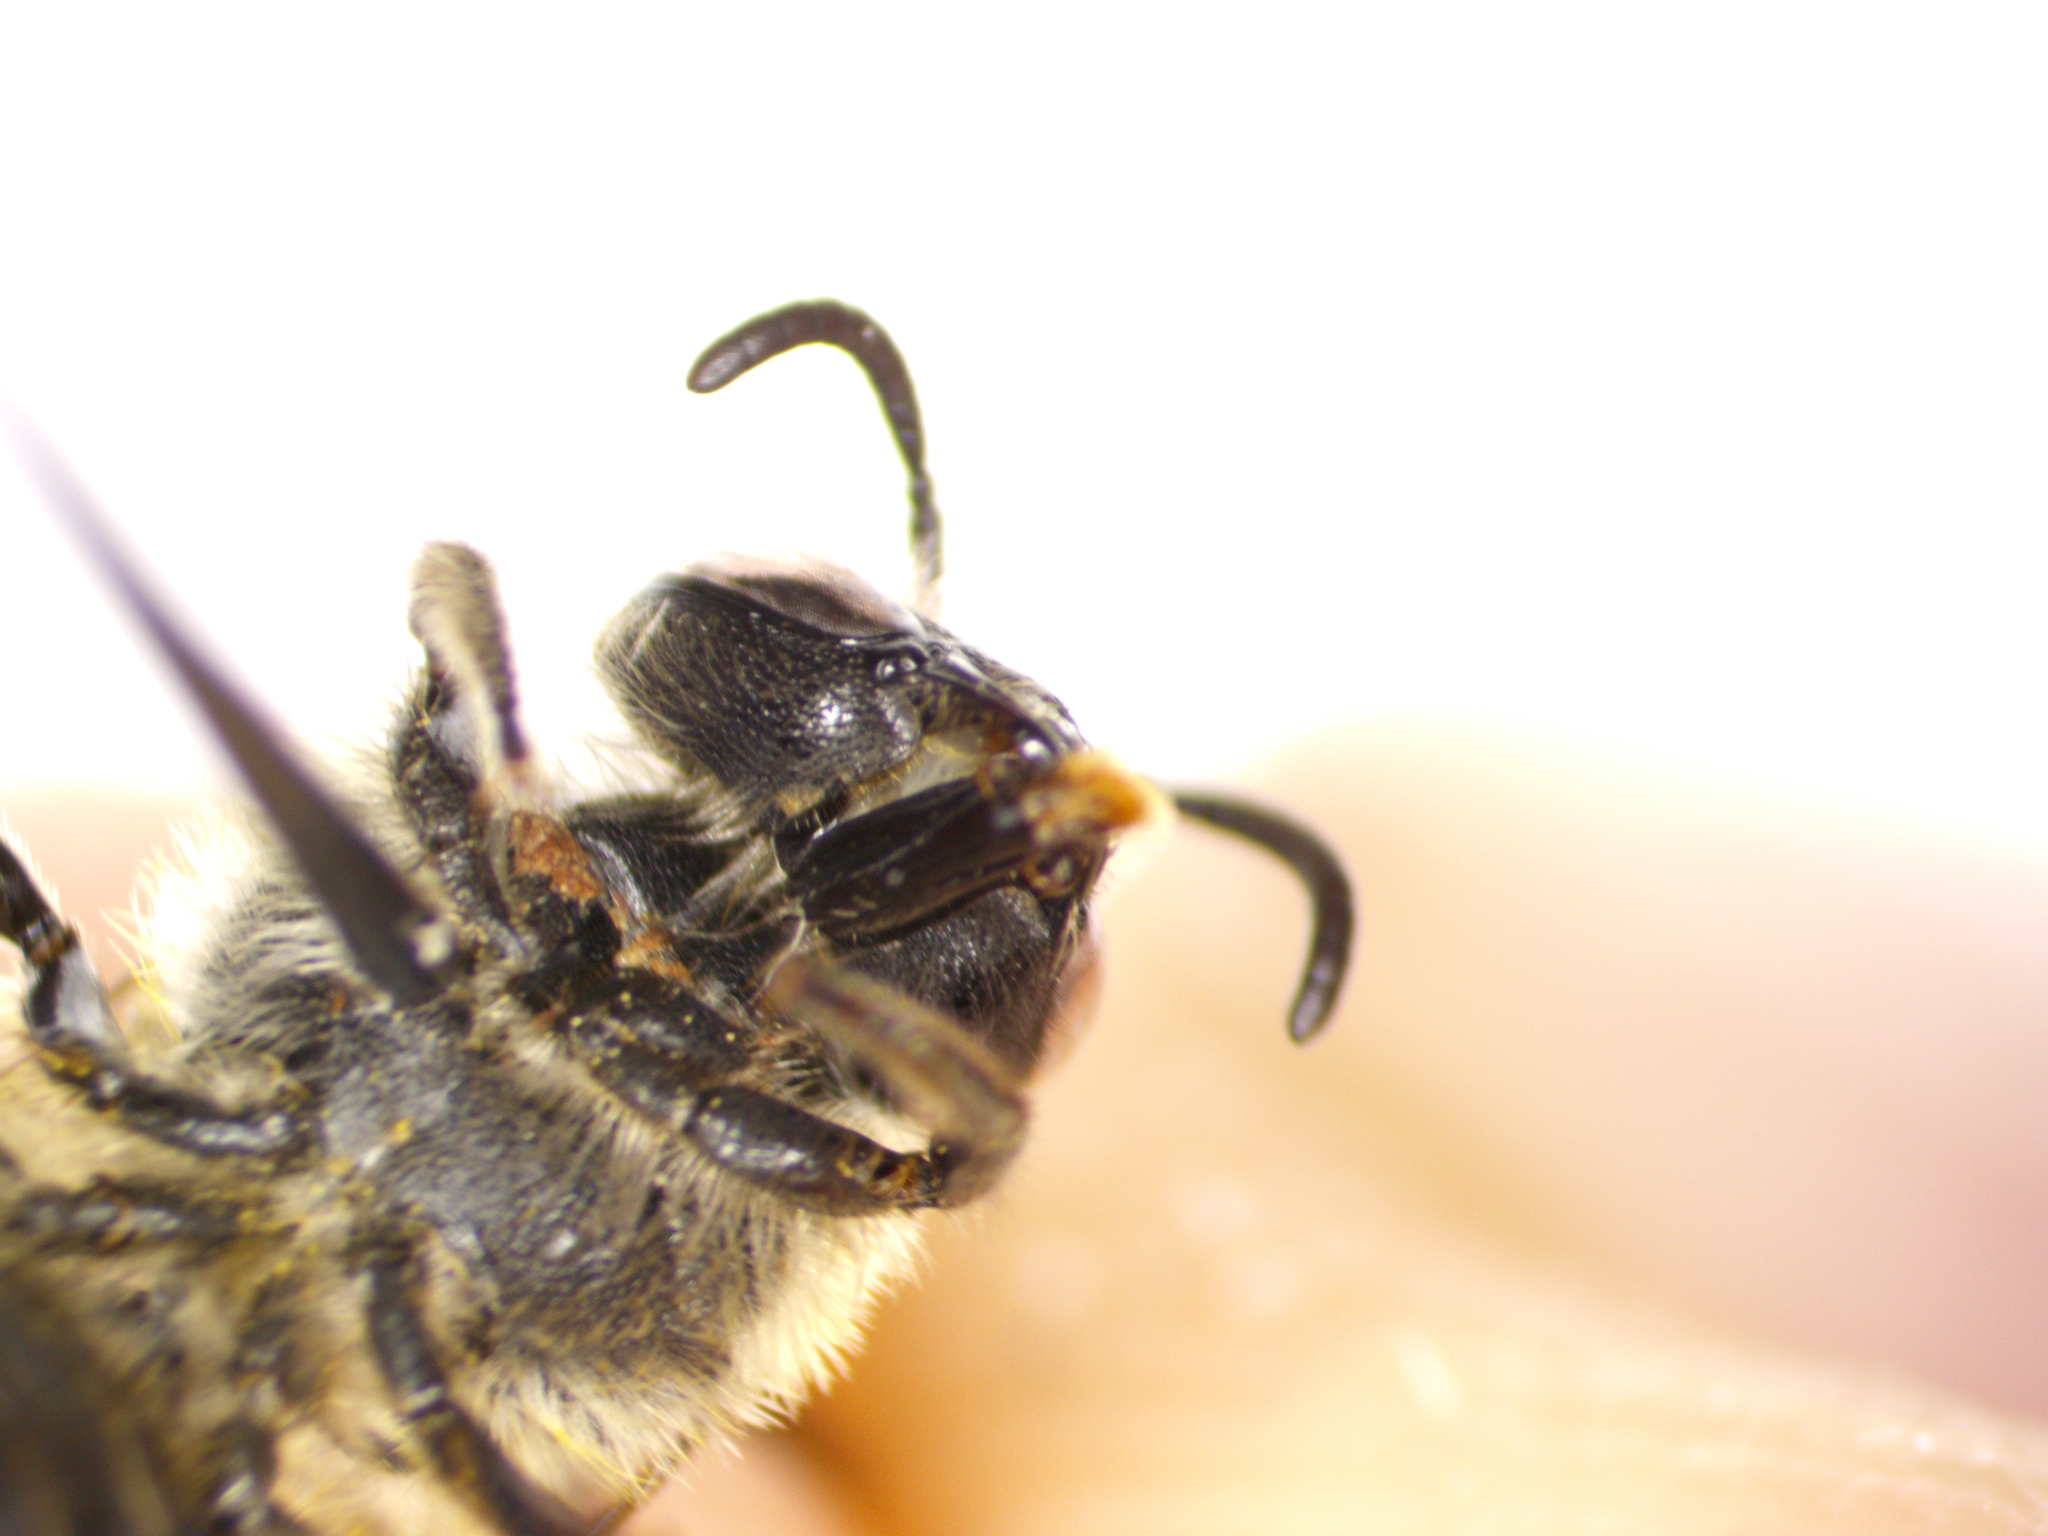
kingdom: Animalia
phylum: Arthropoda
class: Insecta
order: Hymenoptera
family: Colletidae
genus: Colletes
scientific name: Colletes fulgidus
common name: Glittering cellophane bee
